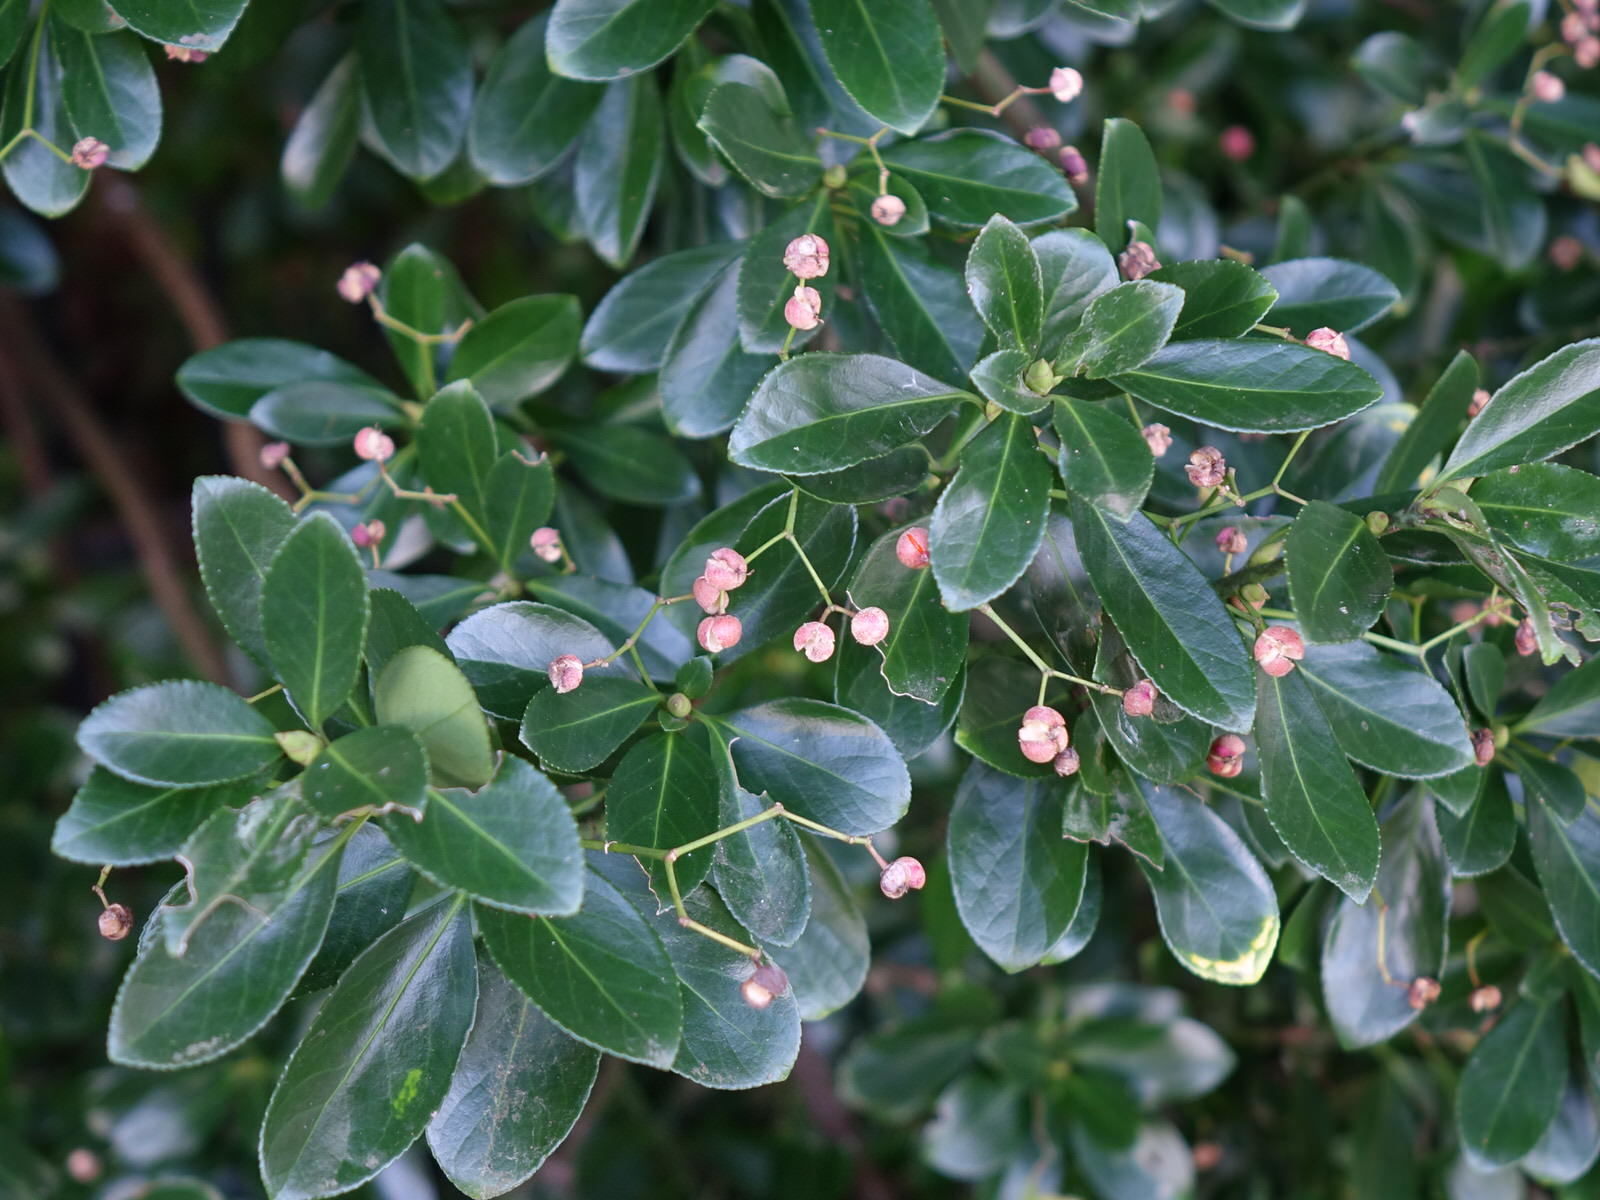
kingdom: Plantae
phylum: Tracheophyta
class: Magnoliopsida
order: Celastrales
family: Celastraceae
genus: Euonymus
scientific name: Euonymus japonicus
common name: Japanese spindletree
